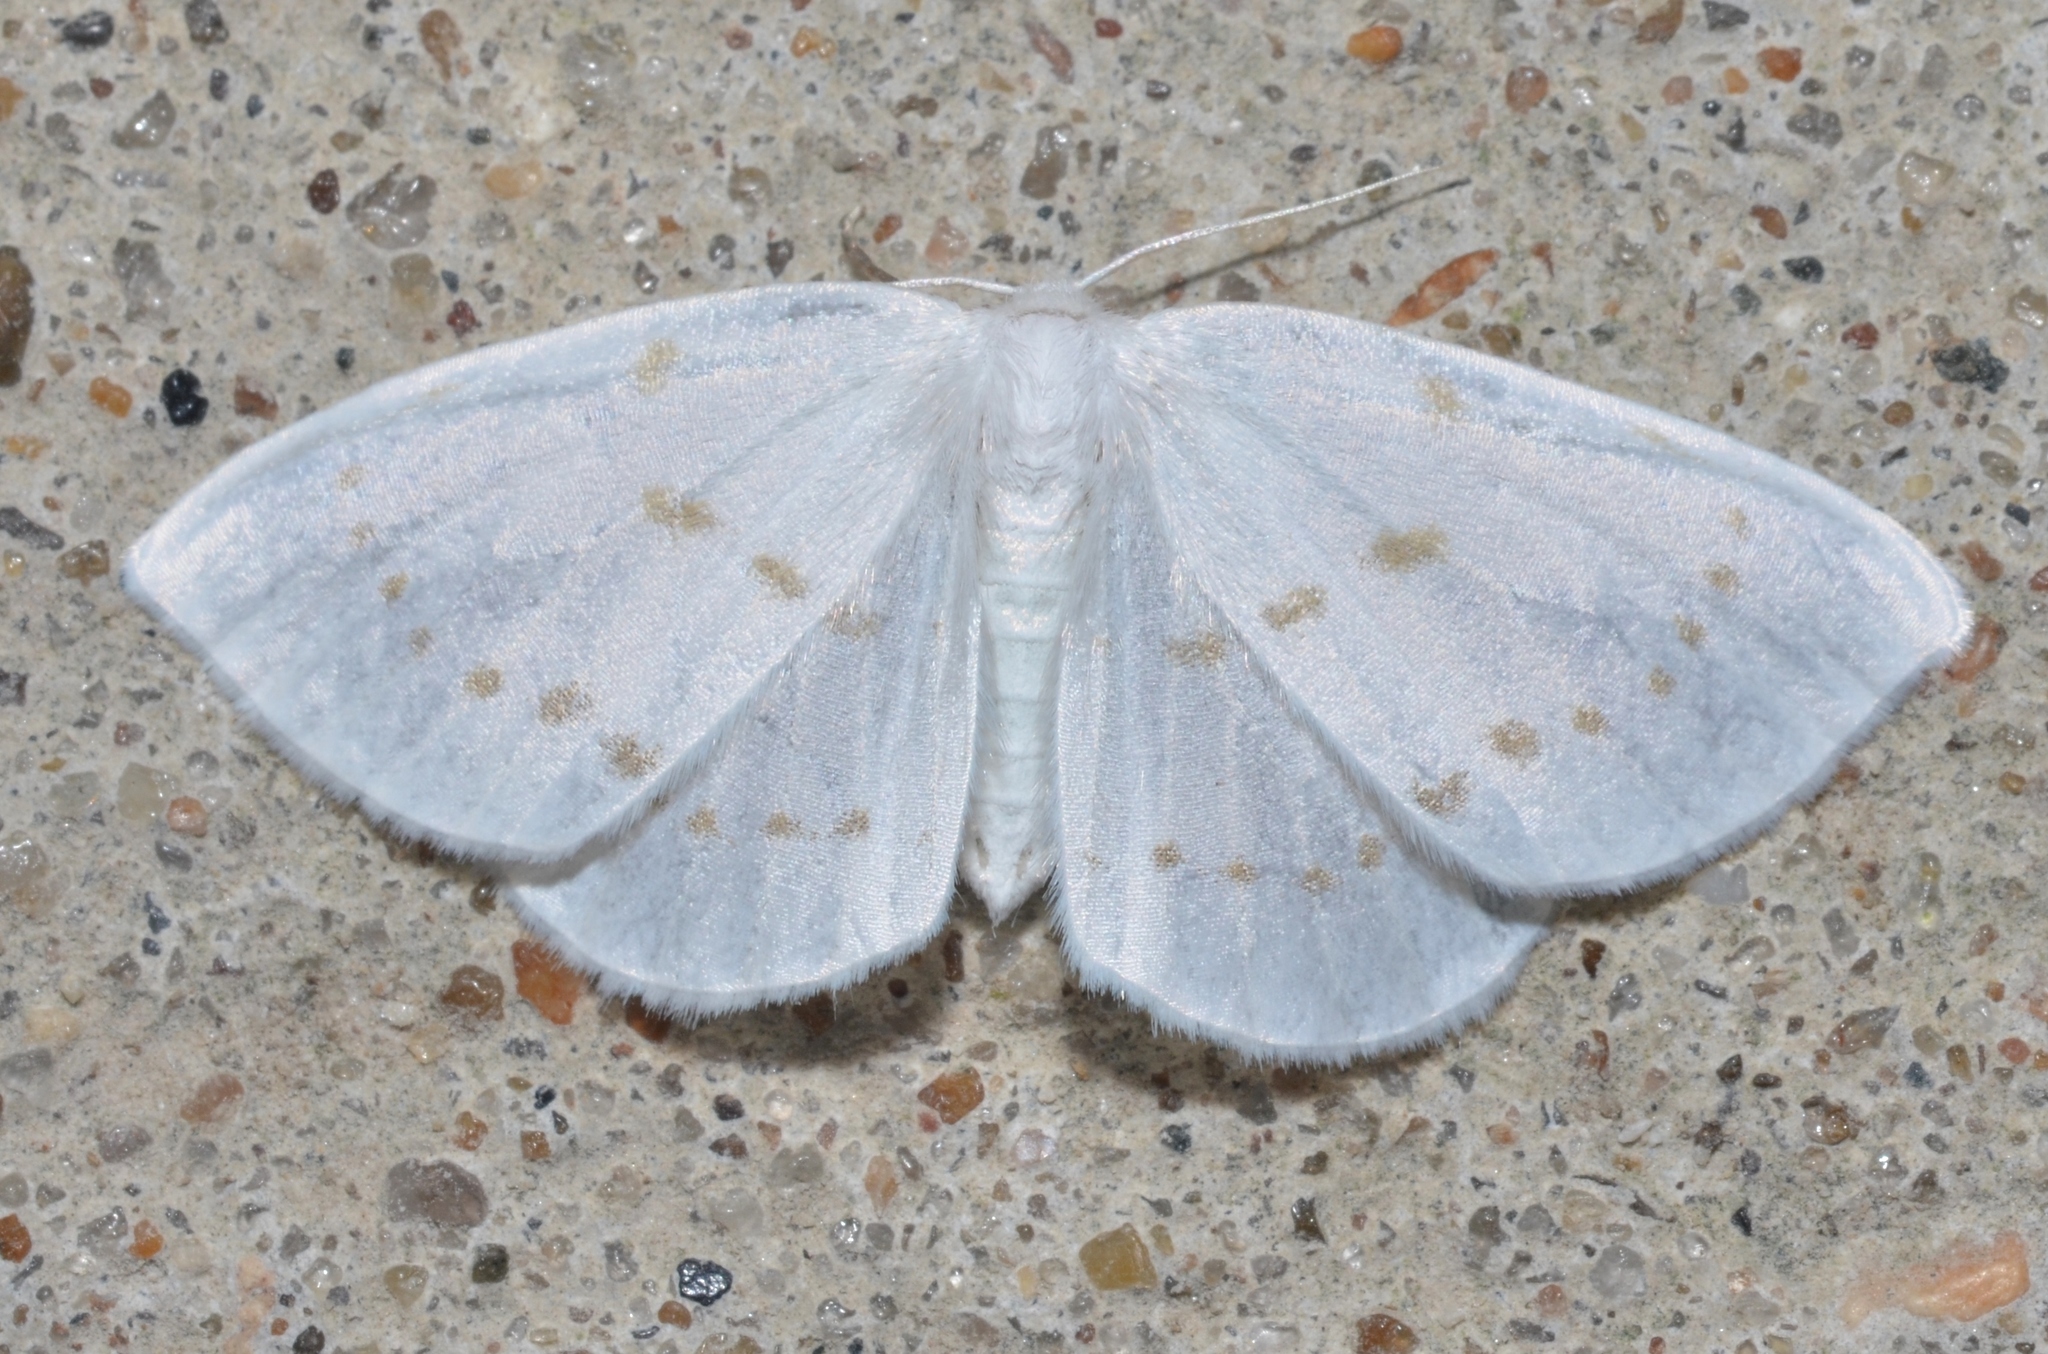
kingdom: Animalia
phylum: Arthropoda
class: Insecta
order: Lepidoptera
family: Drepanidae
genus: Eudeilinia
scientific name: Eudeilinia herminiata
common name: Northern eudeilinea moth
